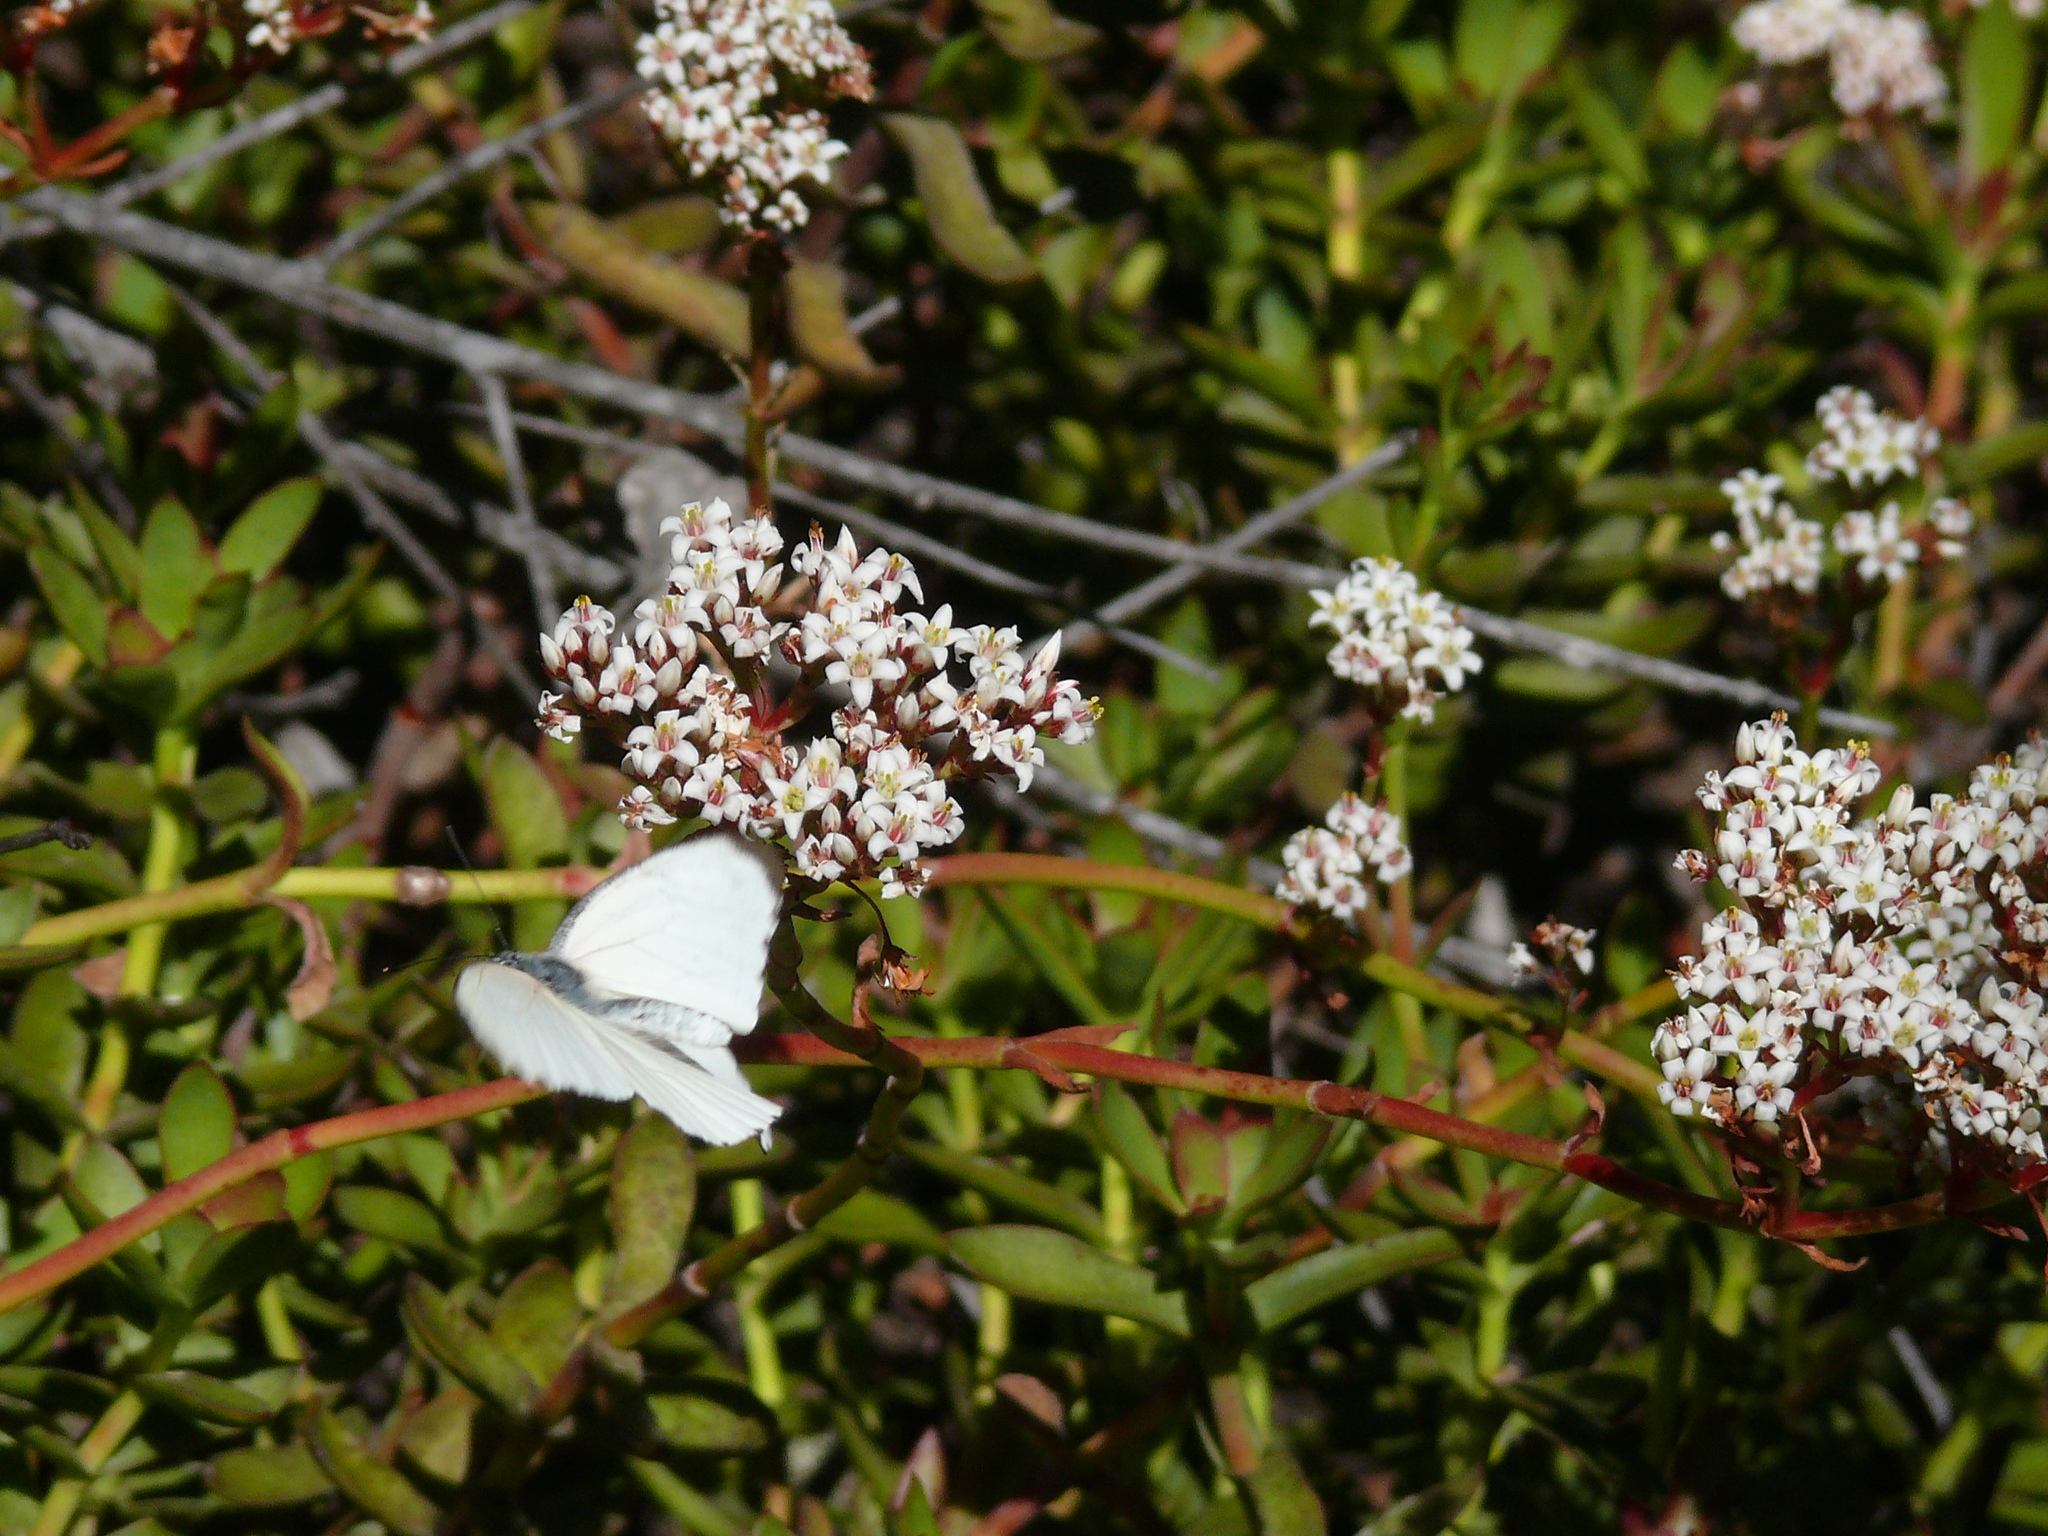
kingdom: Plantae
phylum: Tracheophyta
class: Magnoliopsida
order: Saxifragales
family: Crassulaceae
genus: Crassula
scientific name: Crassula rubricaulis
